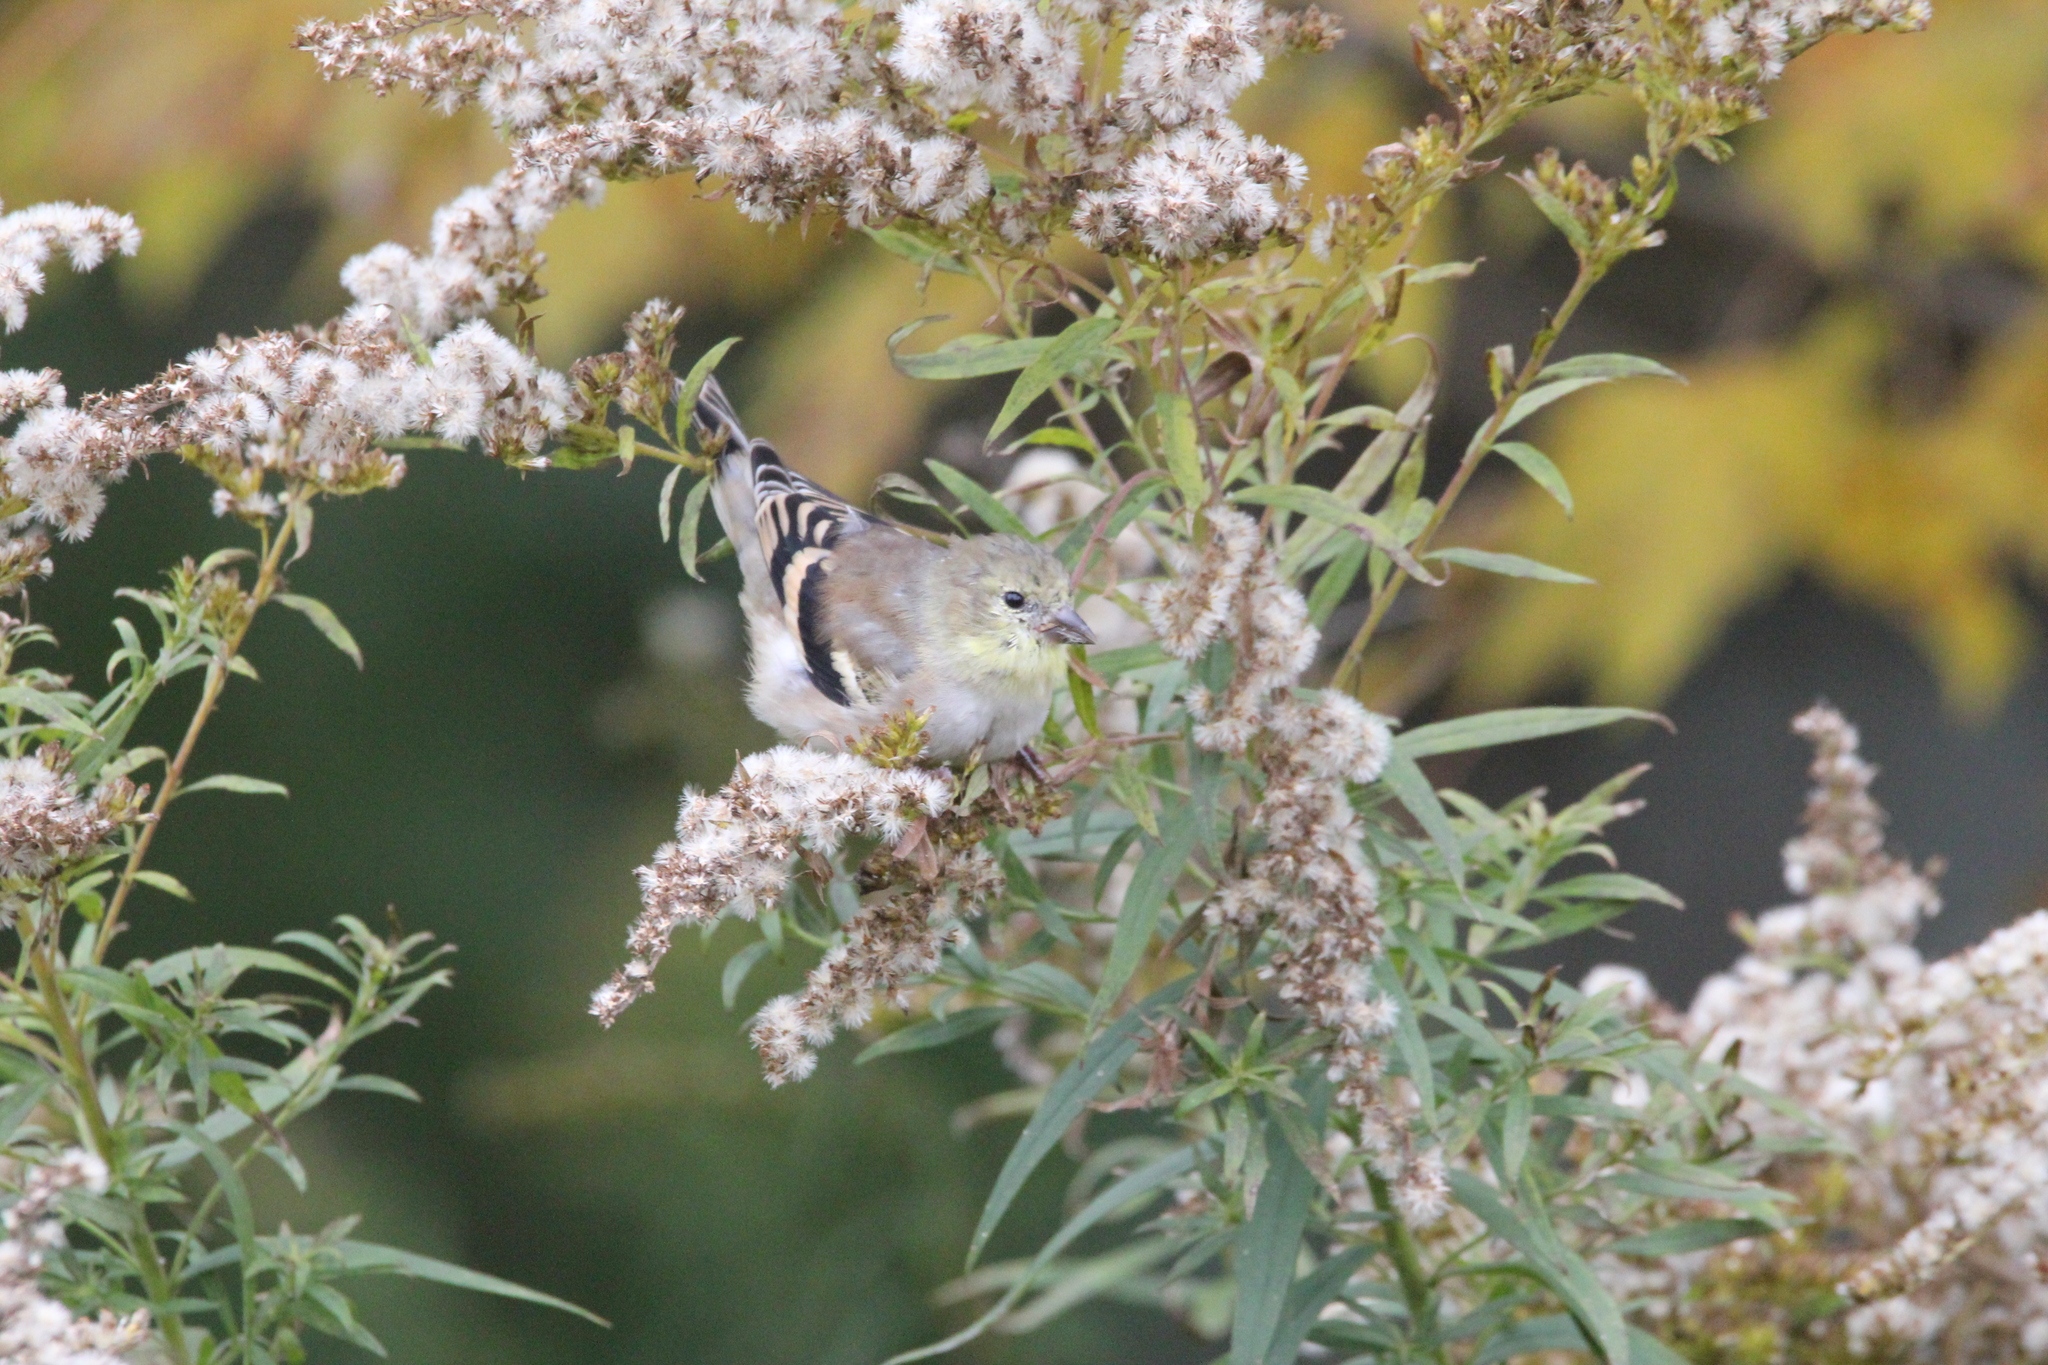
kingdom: Animalia
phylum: Chordata
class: Aves
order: Passeriformes
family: Fringillidae
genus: Spinus
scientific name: Spinus tristis
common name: American goldfinch
